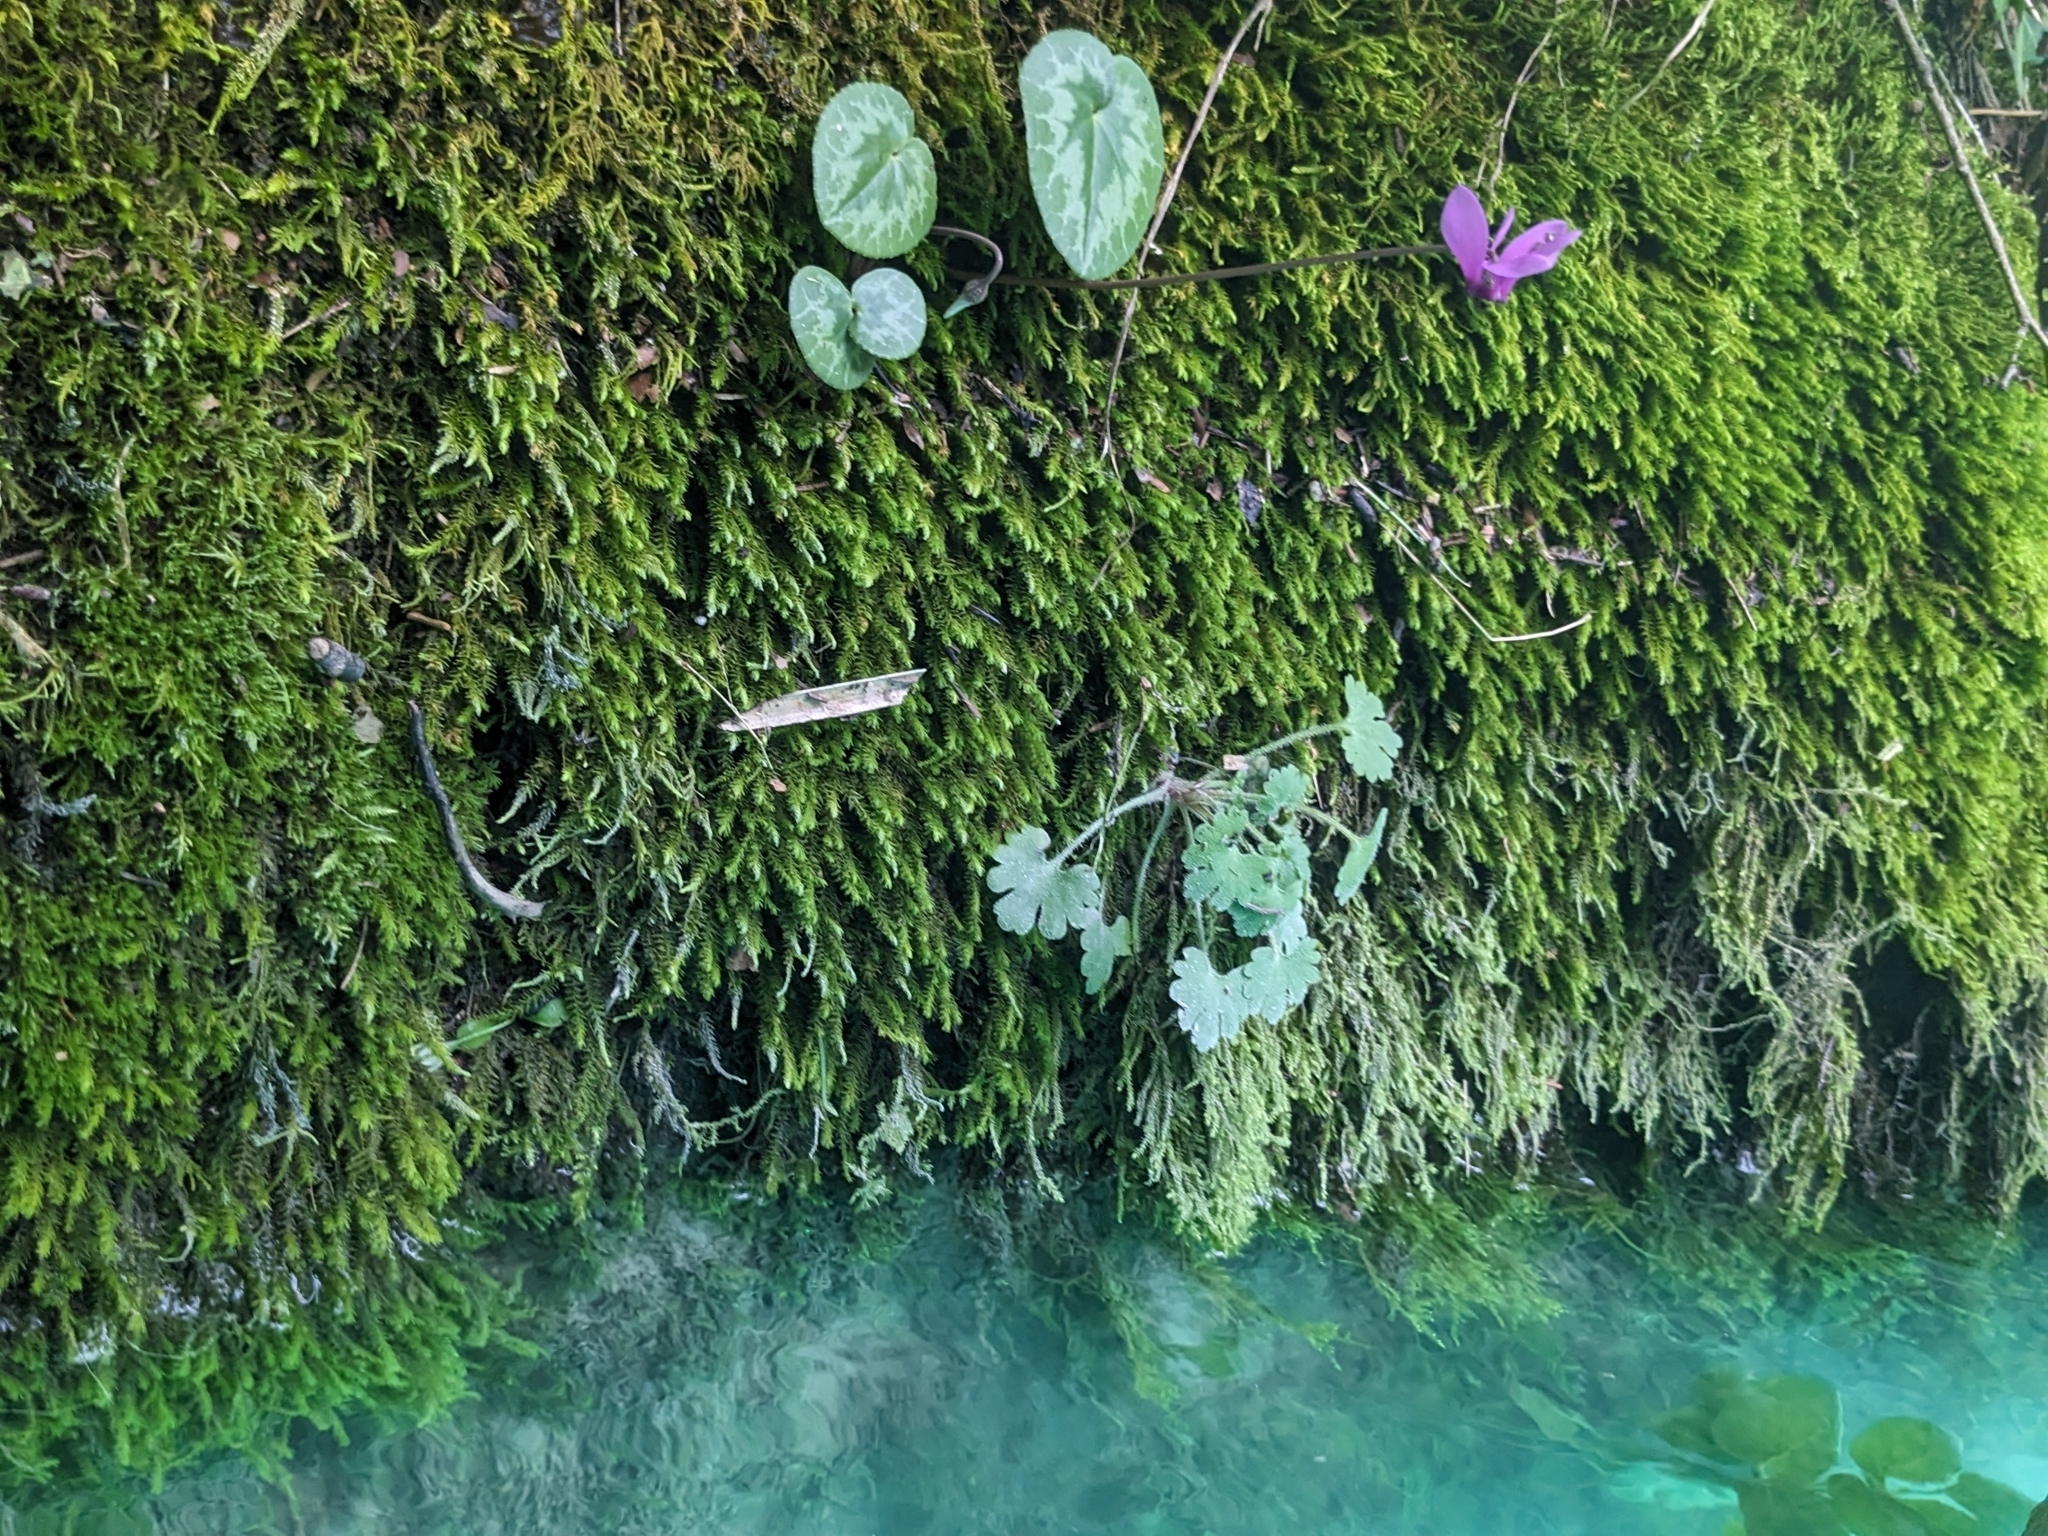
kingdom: Plantae
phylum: Tracheophyta
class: Magnoliopsida
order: Ericales
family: Primulaceae
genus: Cyclamen
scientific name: Cyclamen purpurascens
